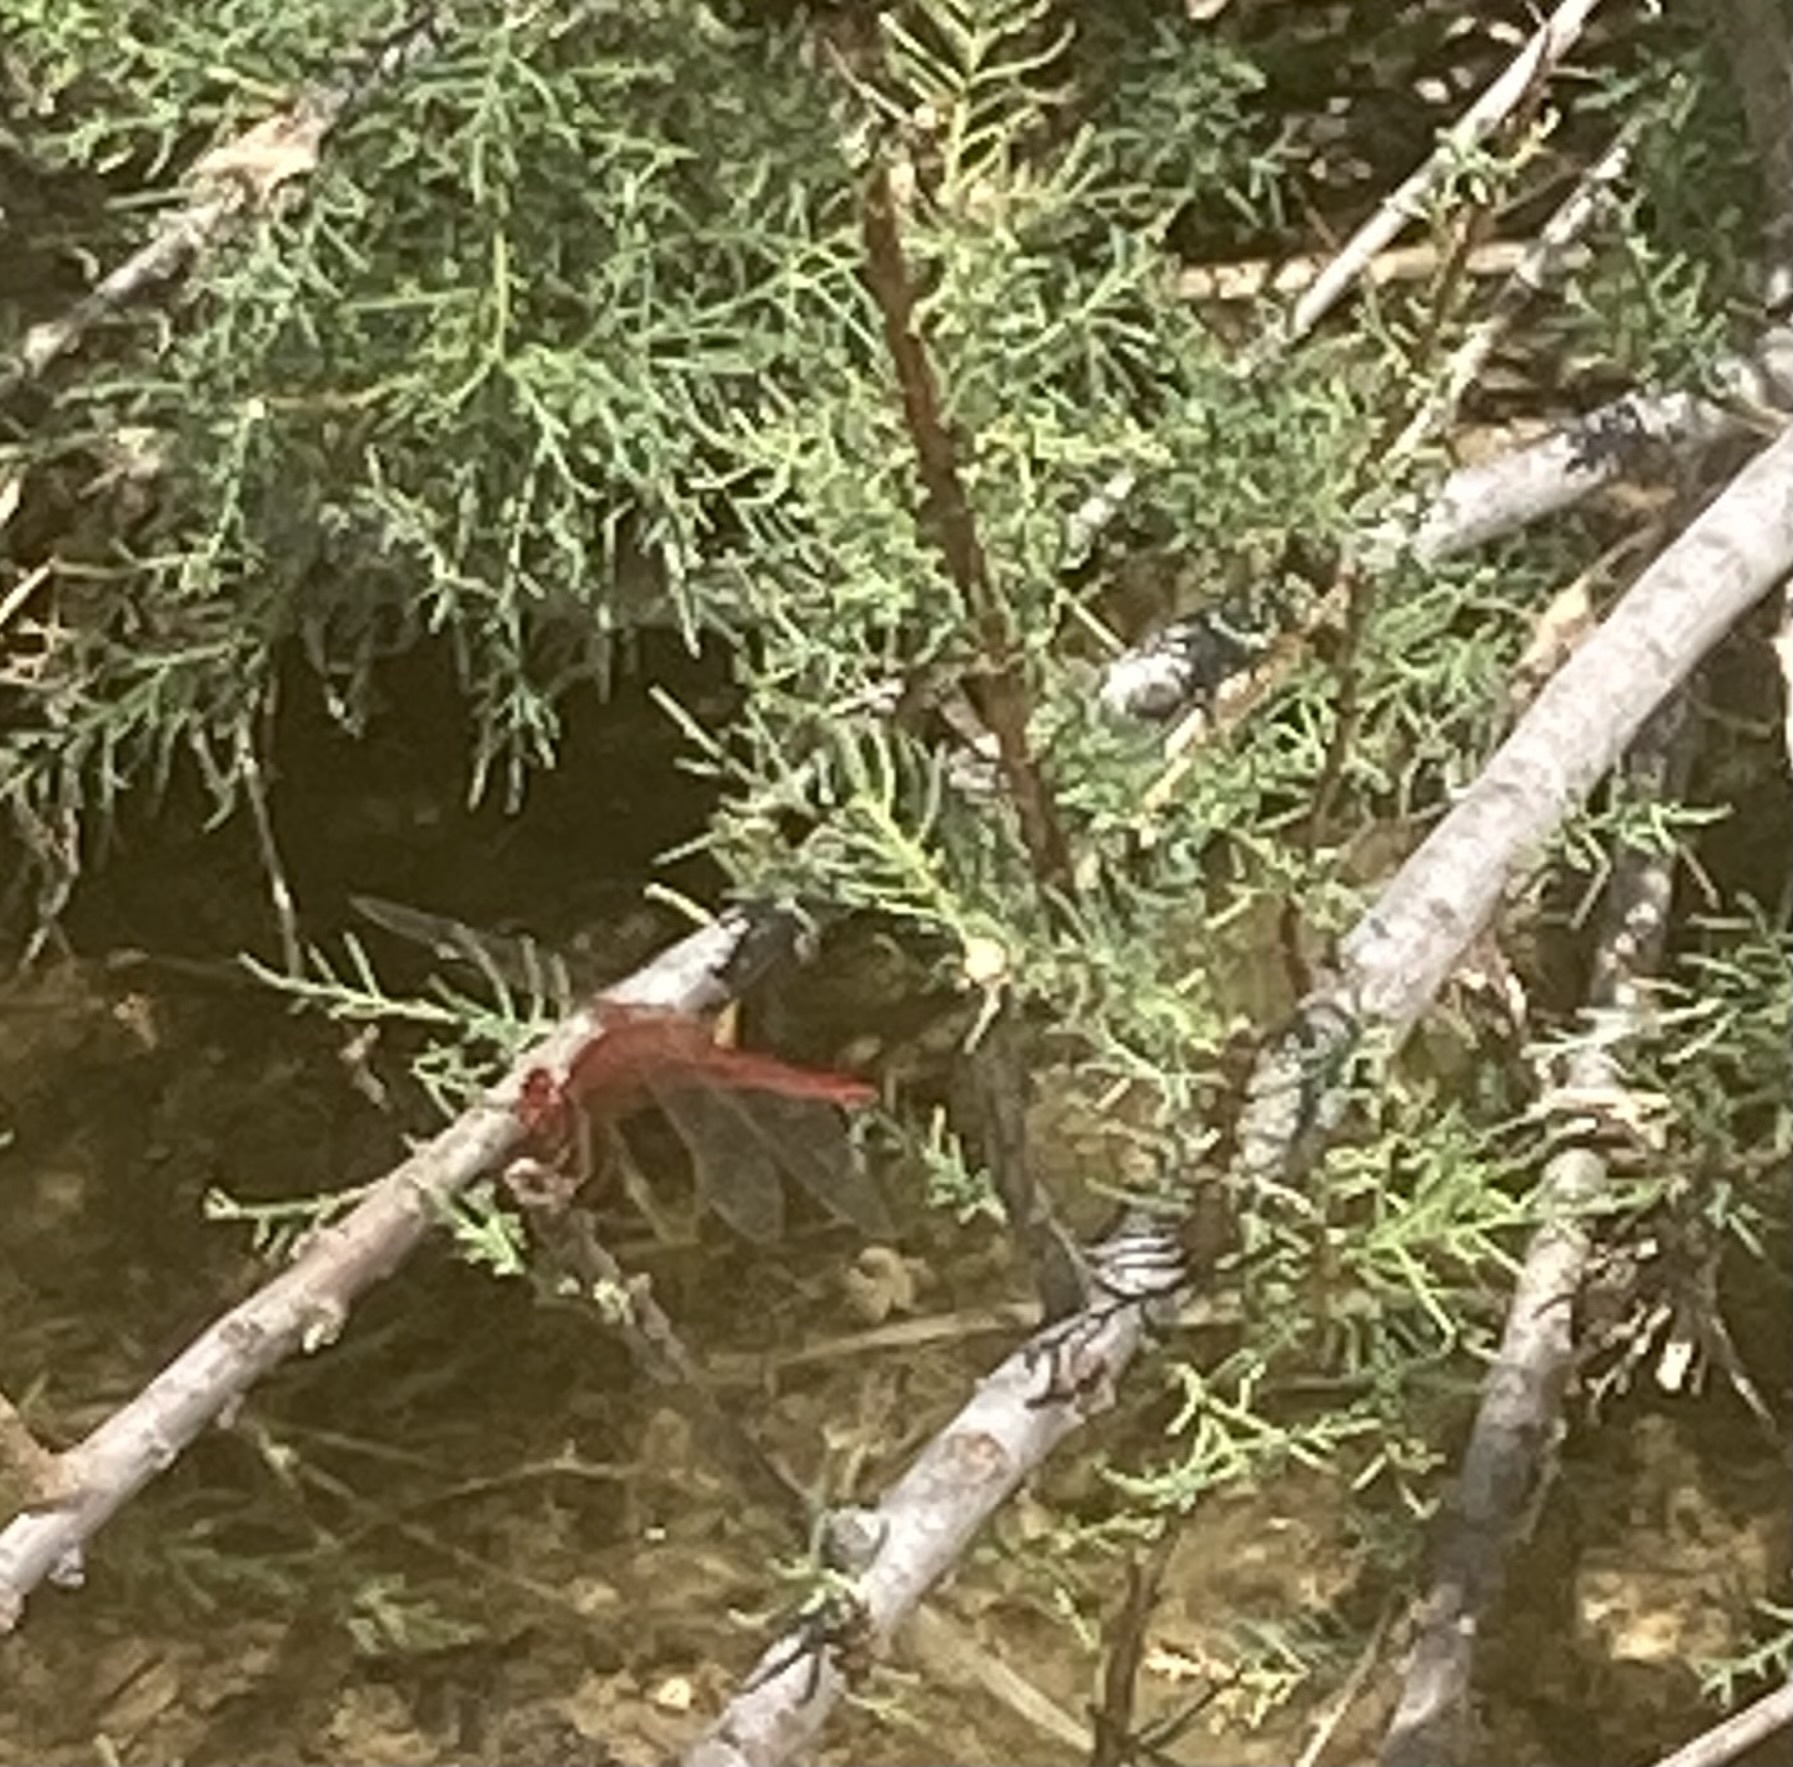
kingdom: Animalia
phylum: Arthropoda
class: Insecta
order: Odonata
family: Libellulidae
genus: Crocothemis
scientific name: Crocothemis erythraea
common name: Scarlet dragonfly
